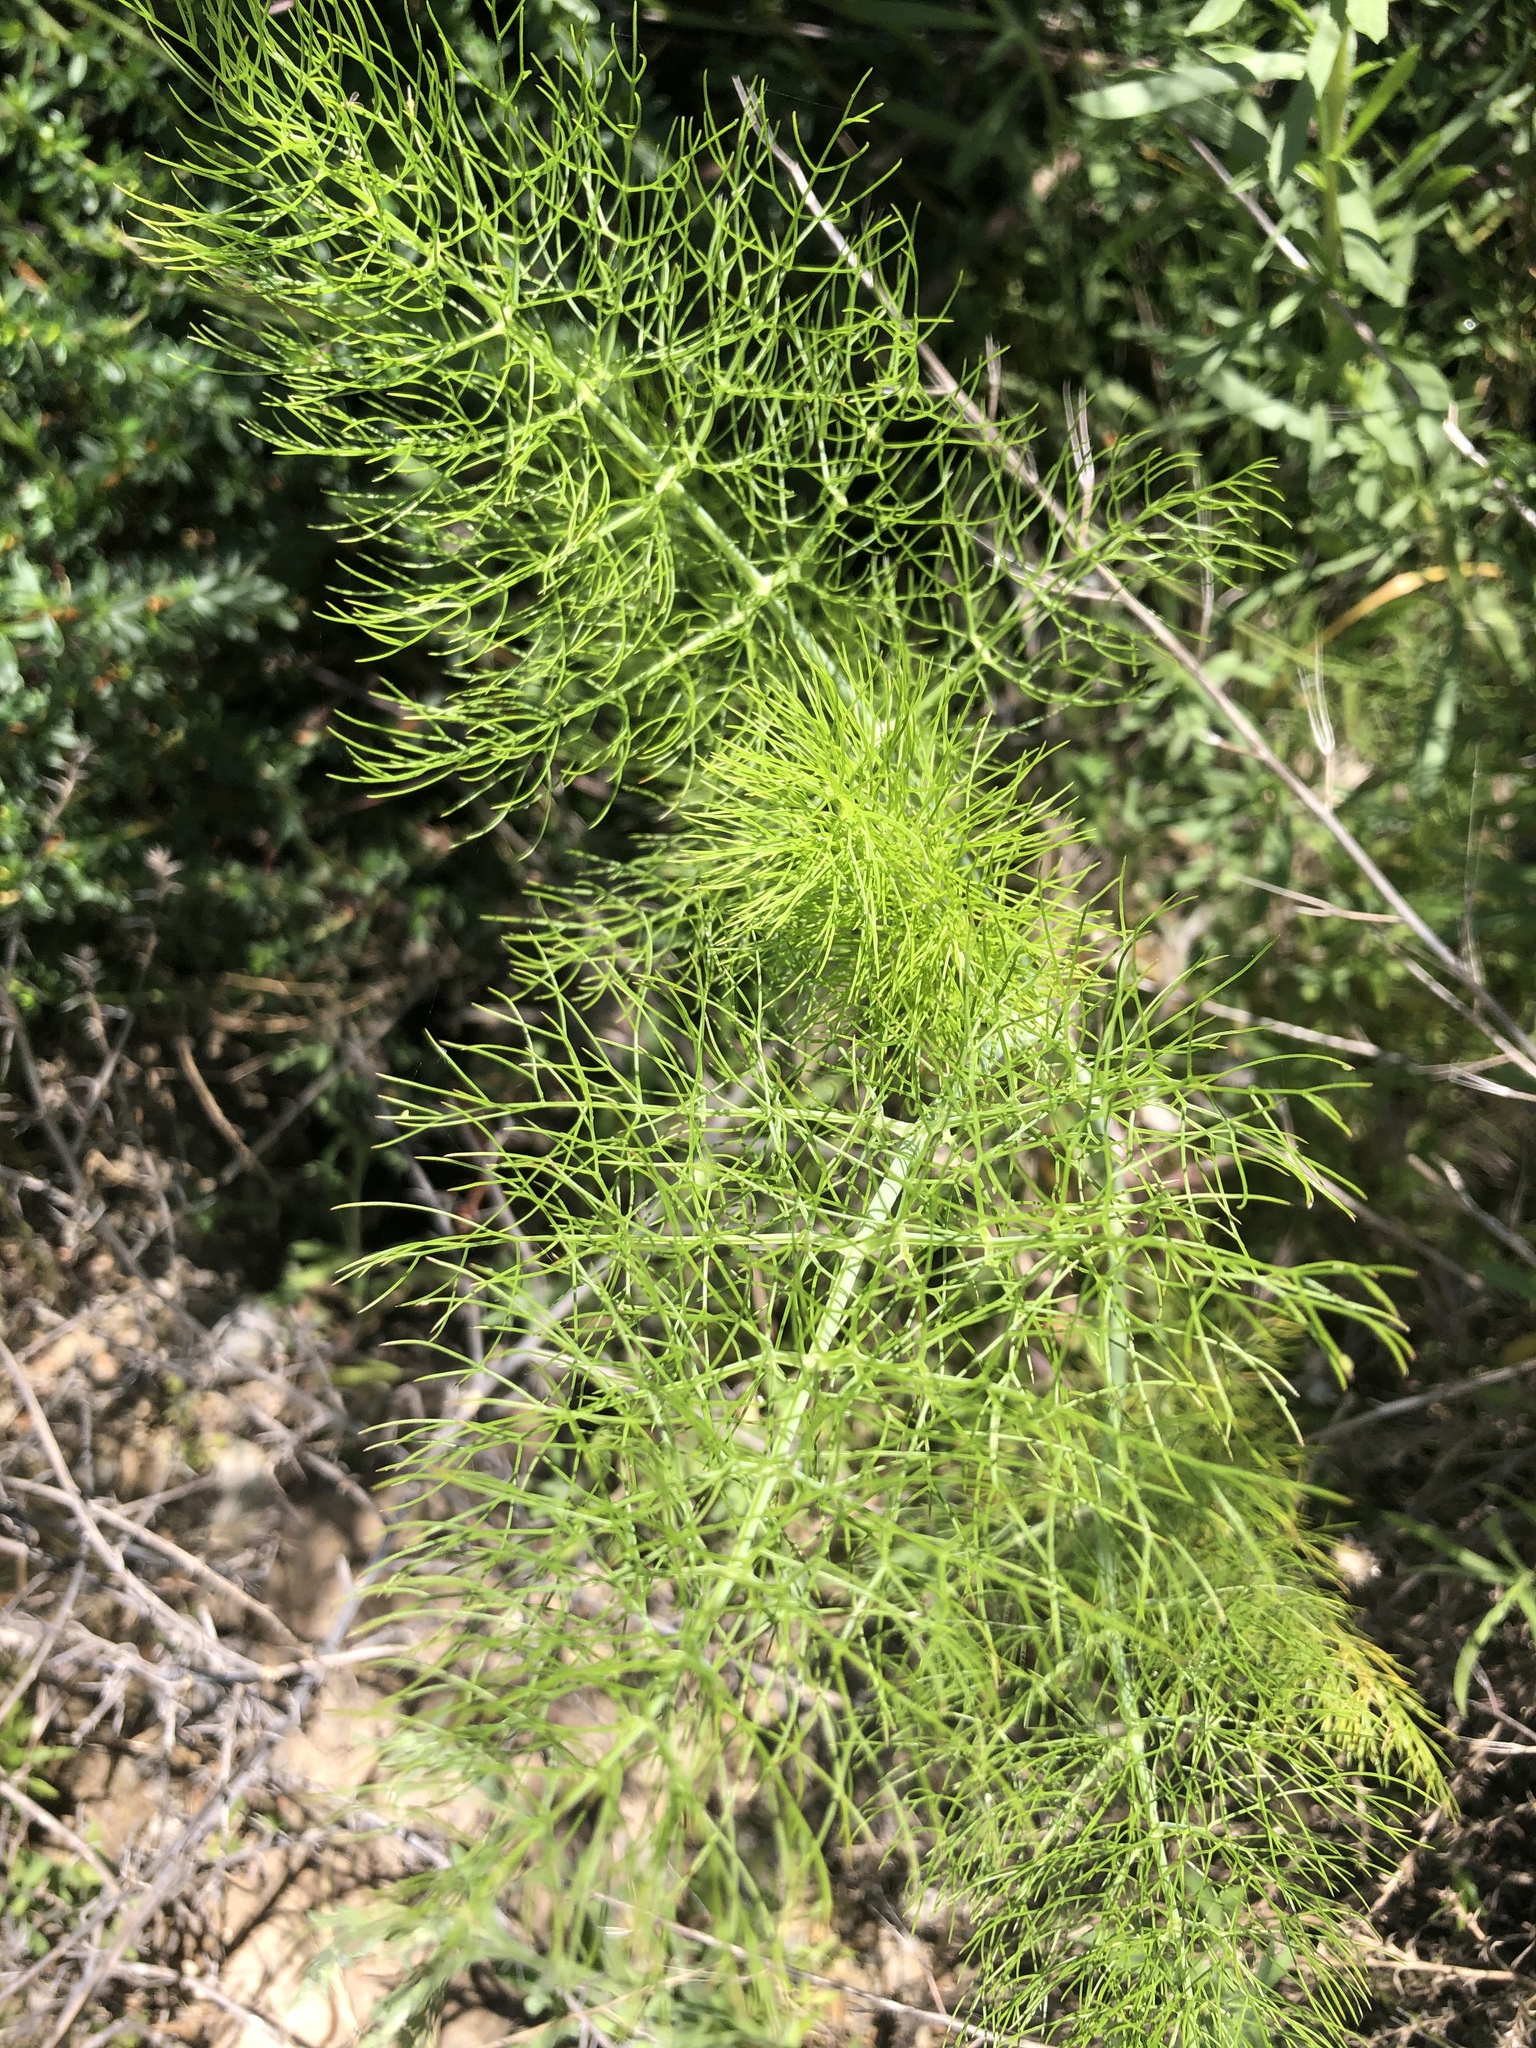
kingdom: Plantae
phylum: Tracheophyta
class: Magnoliopsida
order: Apiales
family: Apiaceae
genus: Foeniculum
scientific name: Foeniculum vulgare
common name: Fennel
